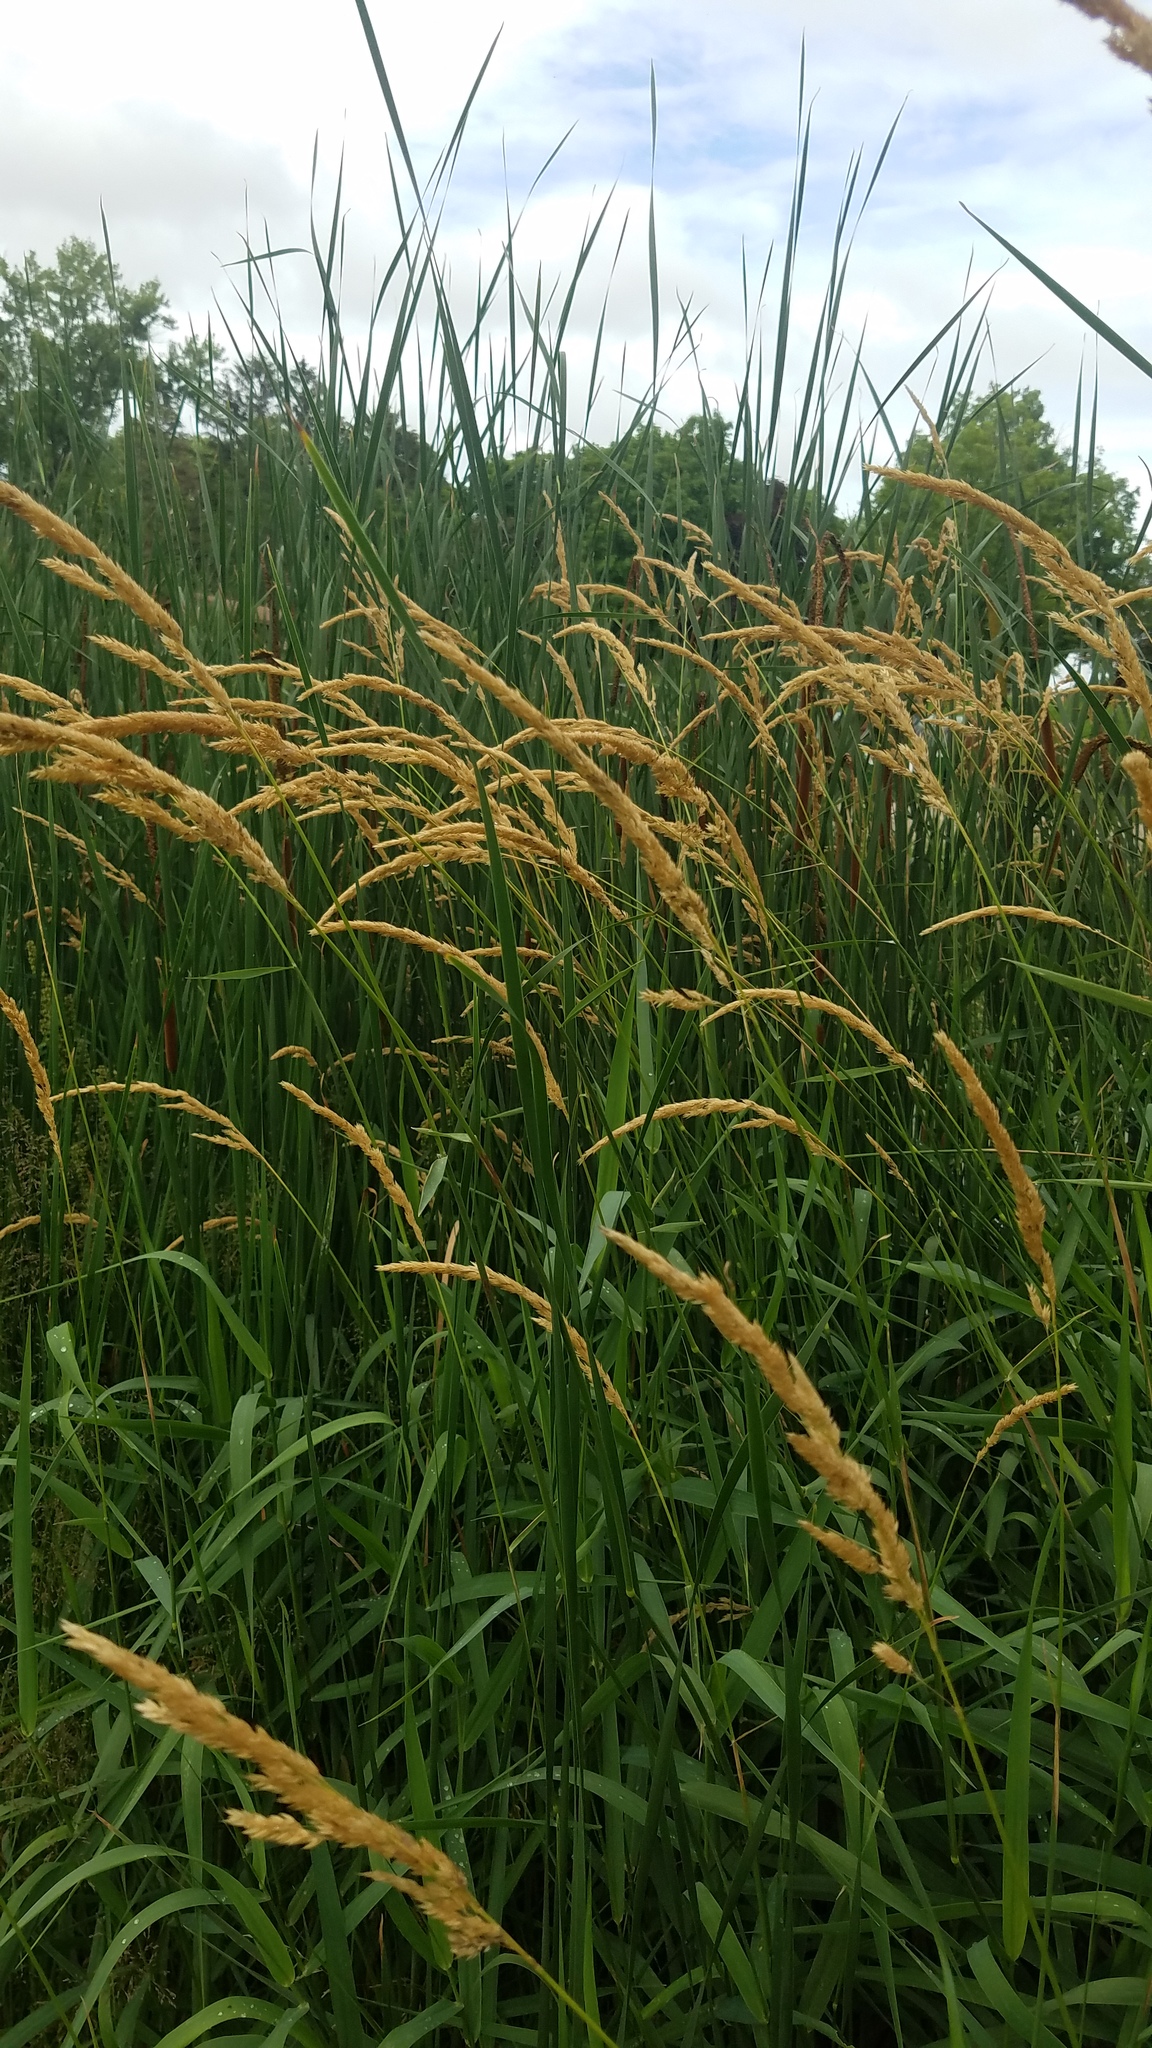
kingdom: Plantae
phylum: Tracheophyta
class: Liliopsida
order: Poales
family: Poaceae
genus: Phalaris
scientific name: Phalaris arundinacea
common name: Reed canary-grass
